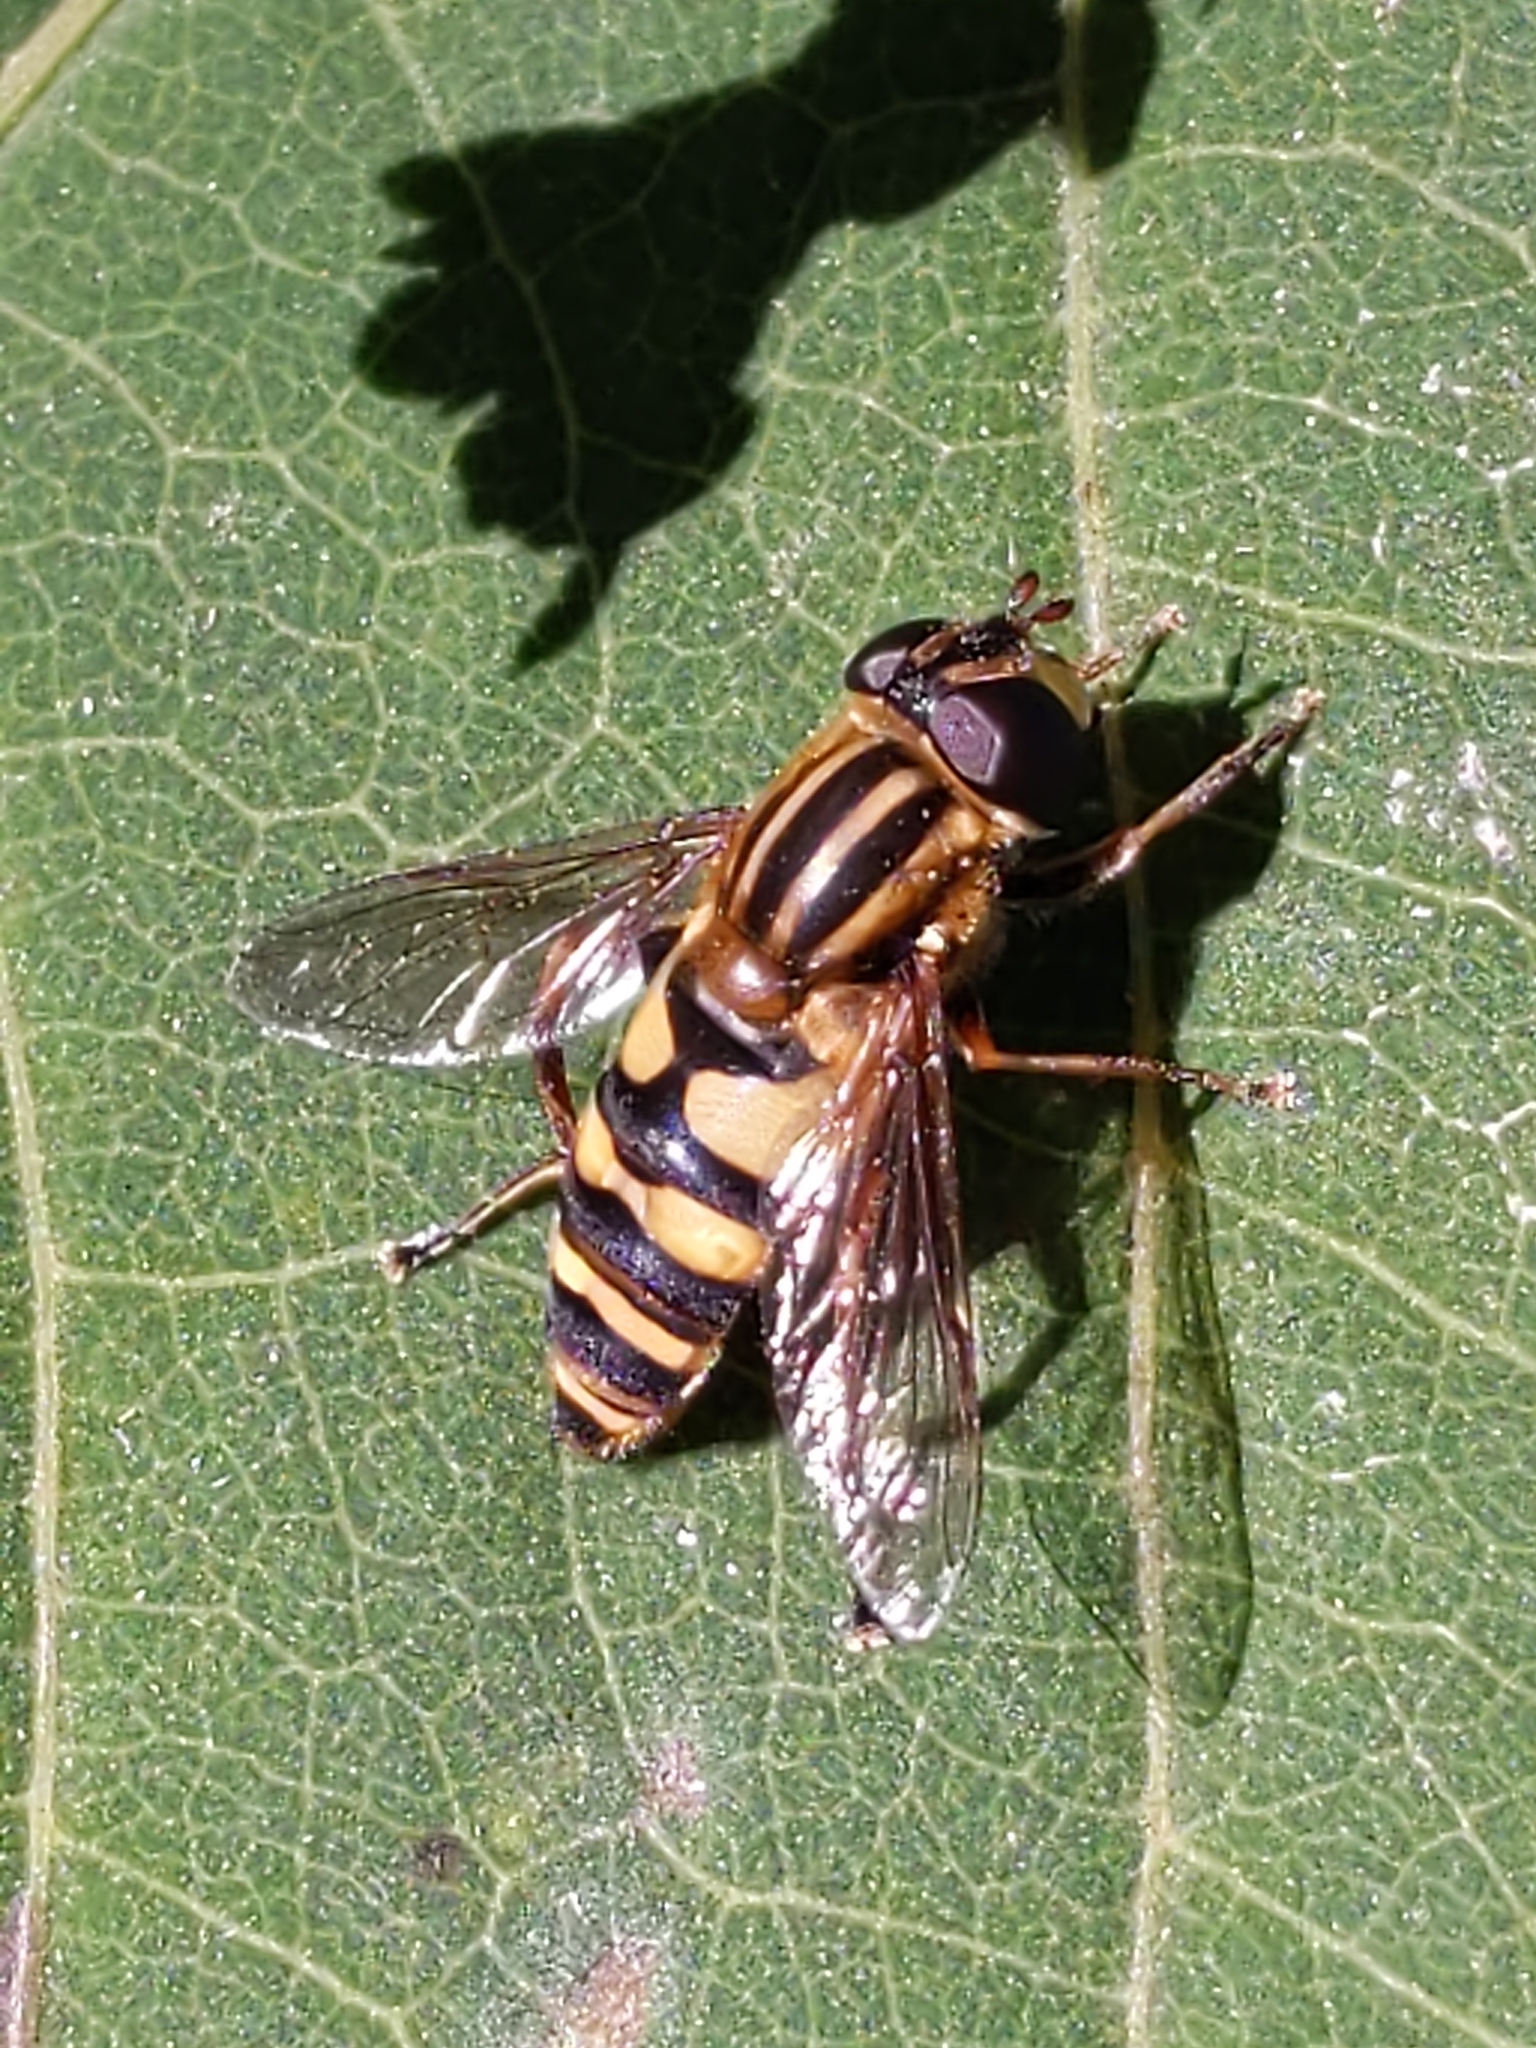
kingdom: Animalia
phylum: Arthropoda
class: Insecta
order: Diptera
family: Syrphidae
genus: Helophilus
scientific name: Helophilus fasciatus
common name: Narrow-headed marsh fly
